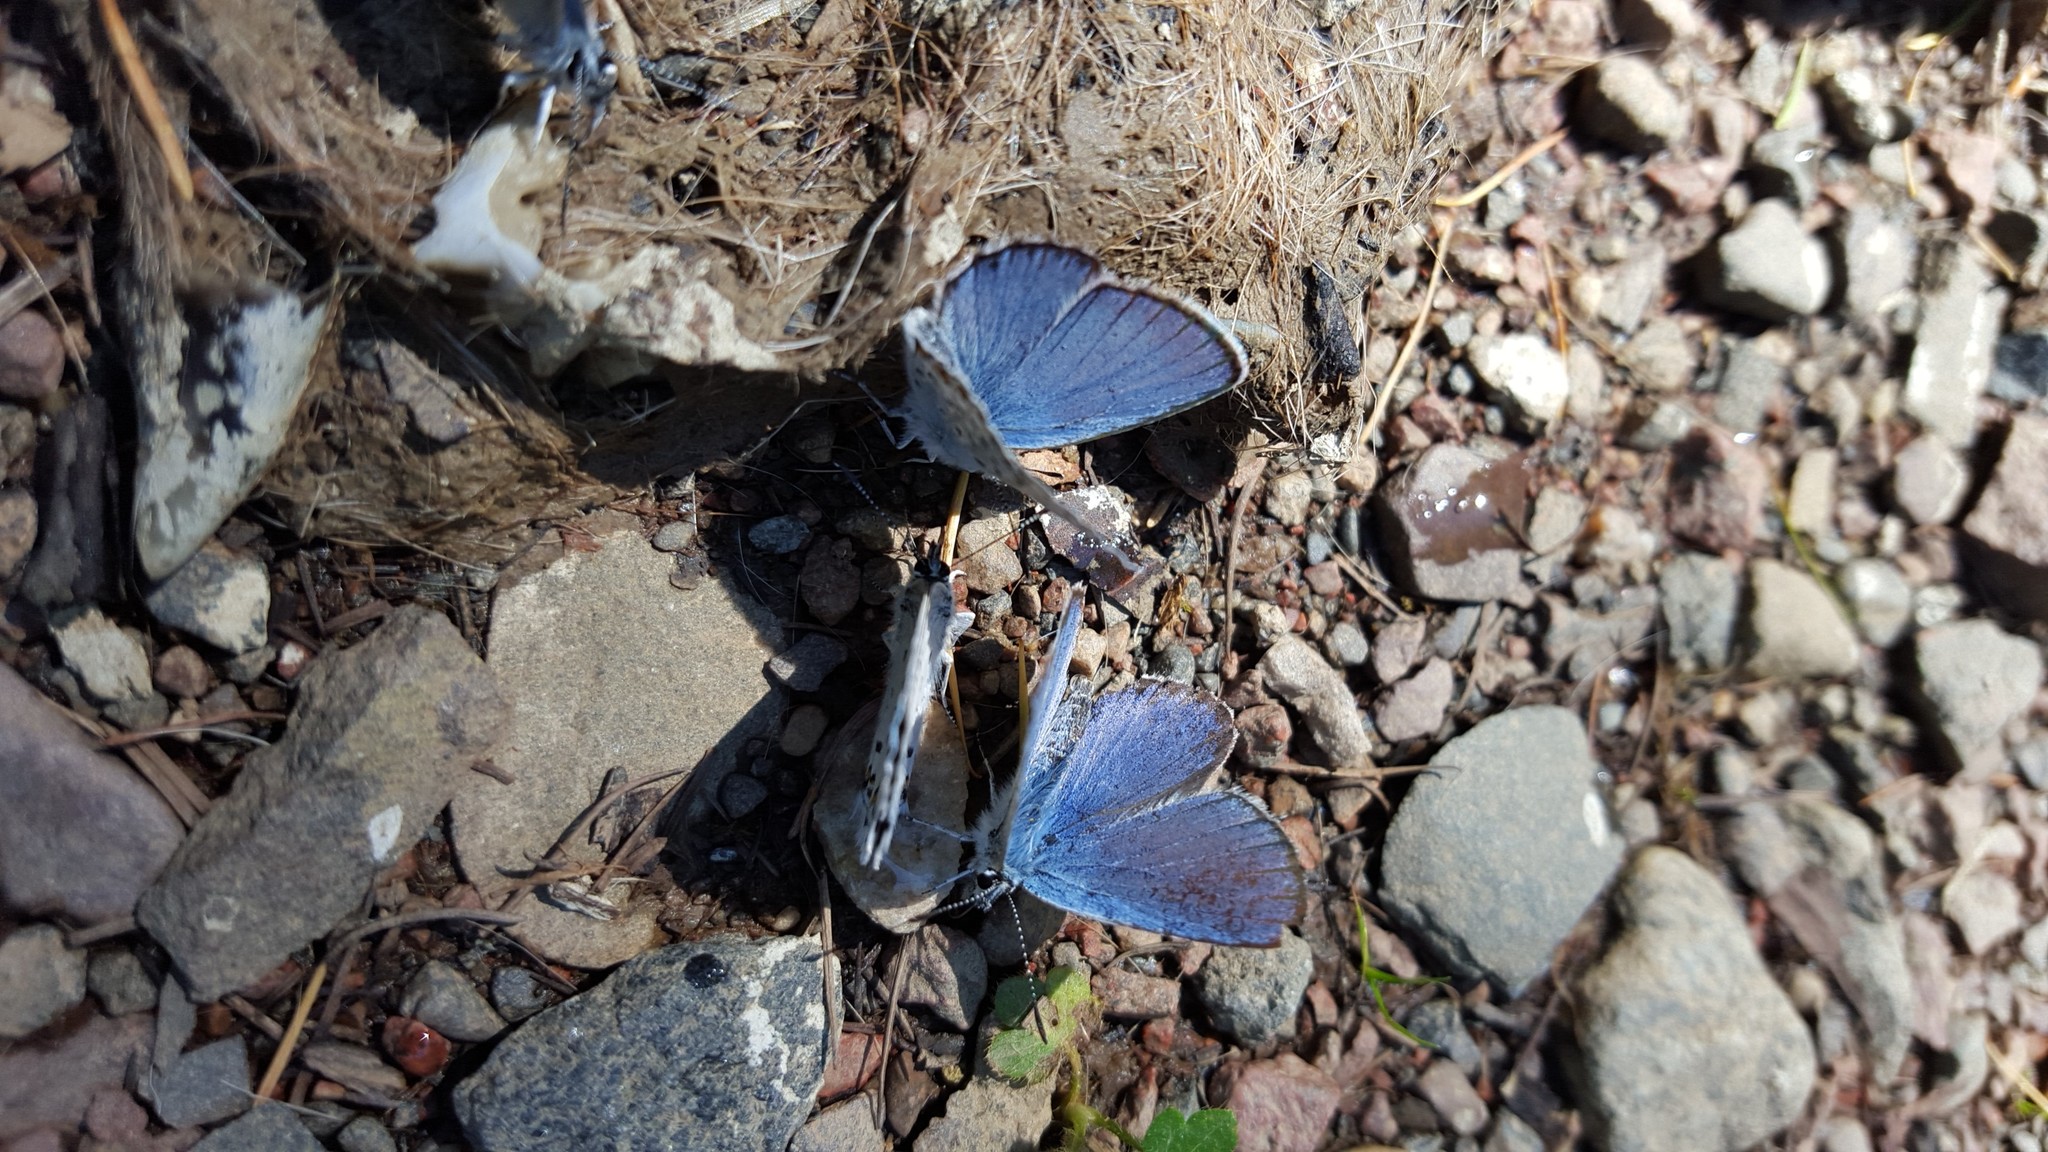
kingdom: Animalia
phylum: Arthropoda
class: Insecta
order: Lepidoptera
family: Lycaenidae
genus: Lycaeides
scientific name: Lycaeides idas
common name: Northern blue
